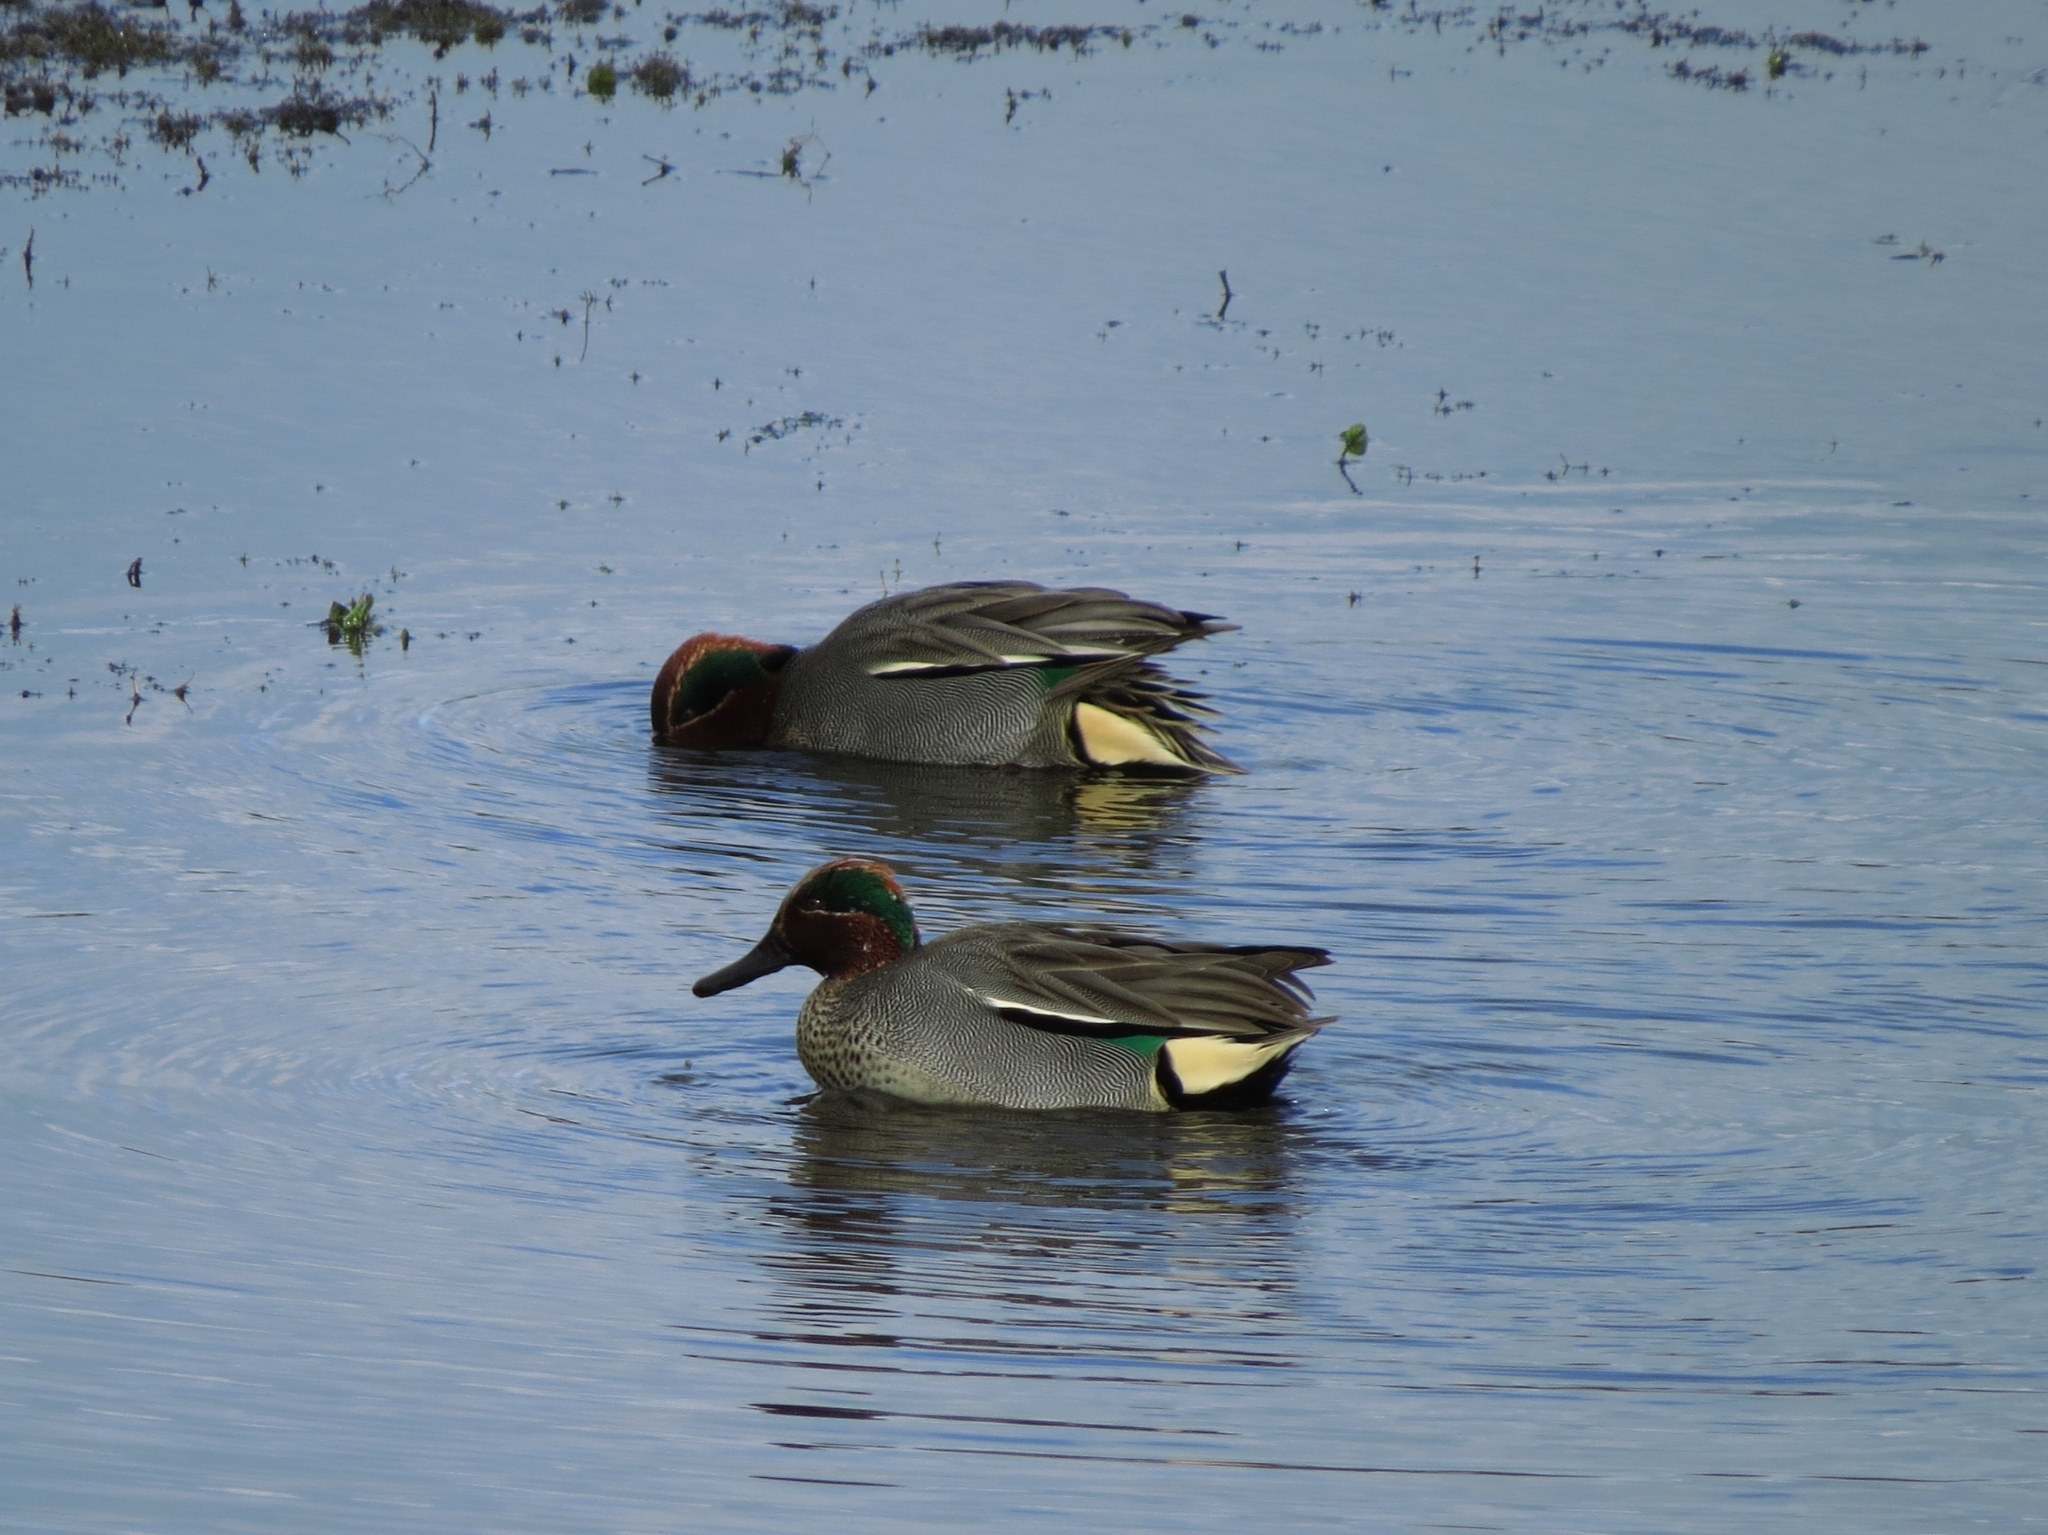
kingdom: Animalia
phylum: Chordata
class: Aves
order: Anseriformes
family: Anatidae
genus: Anas
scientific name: Anas crecca
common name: Eurasian teal
